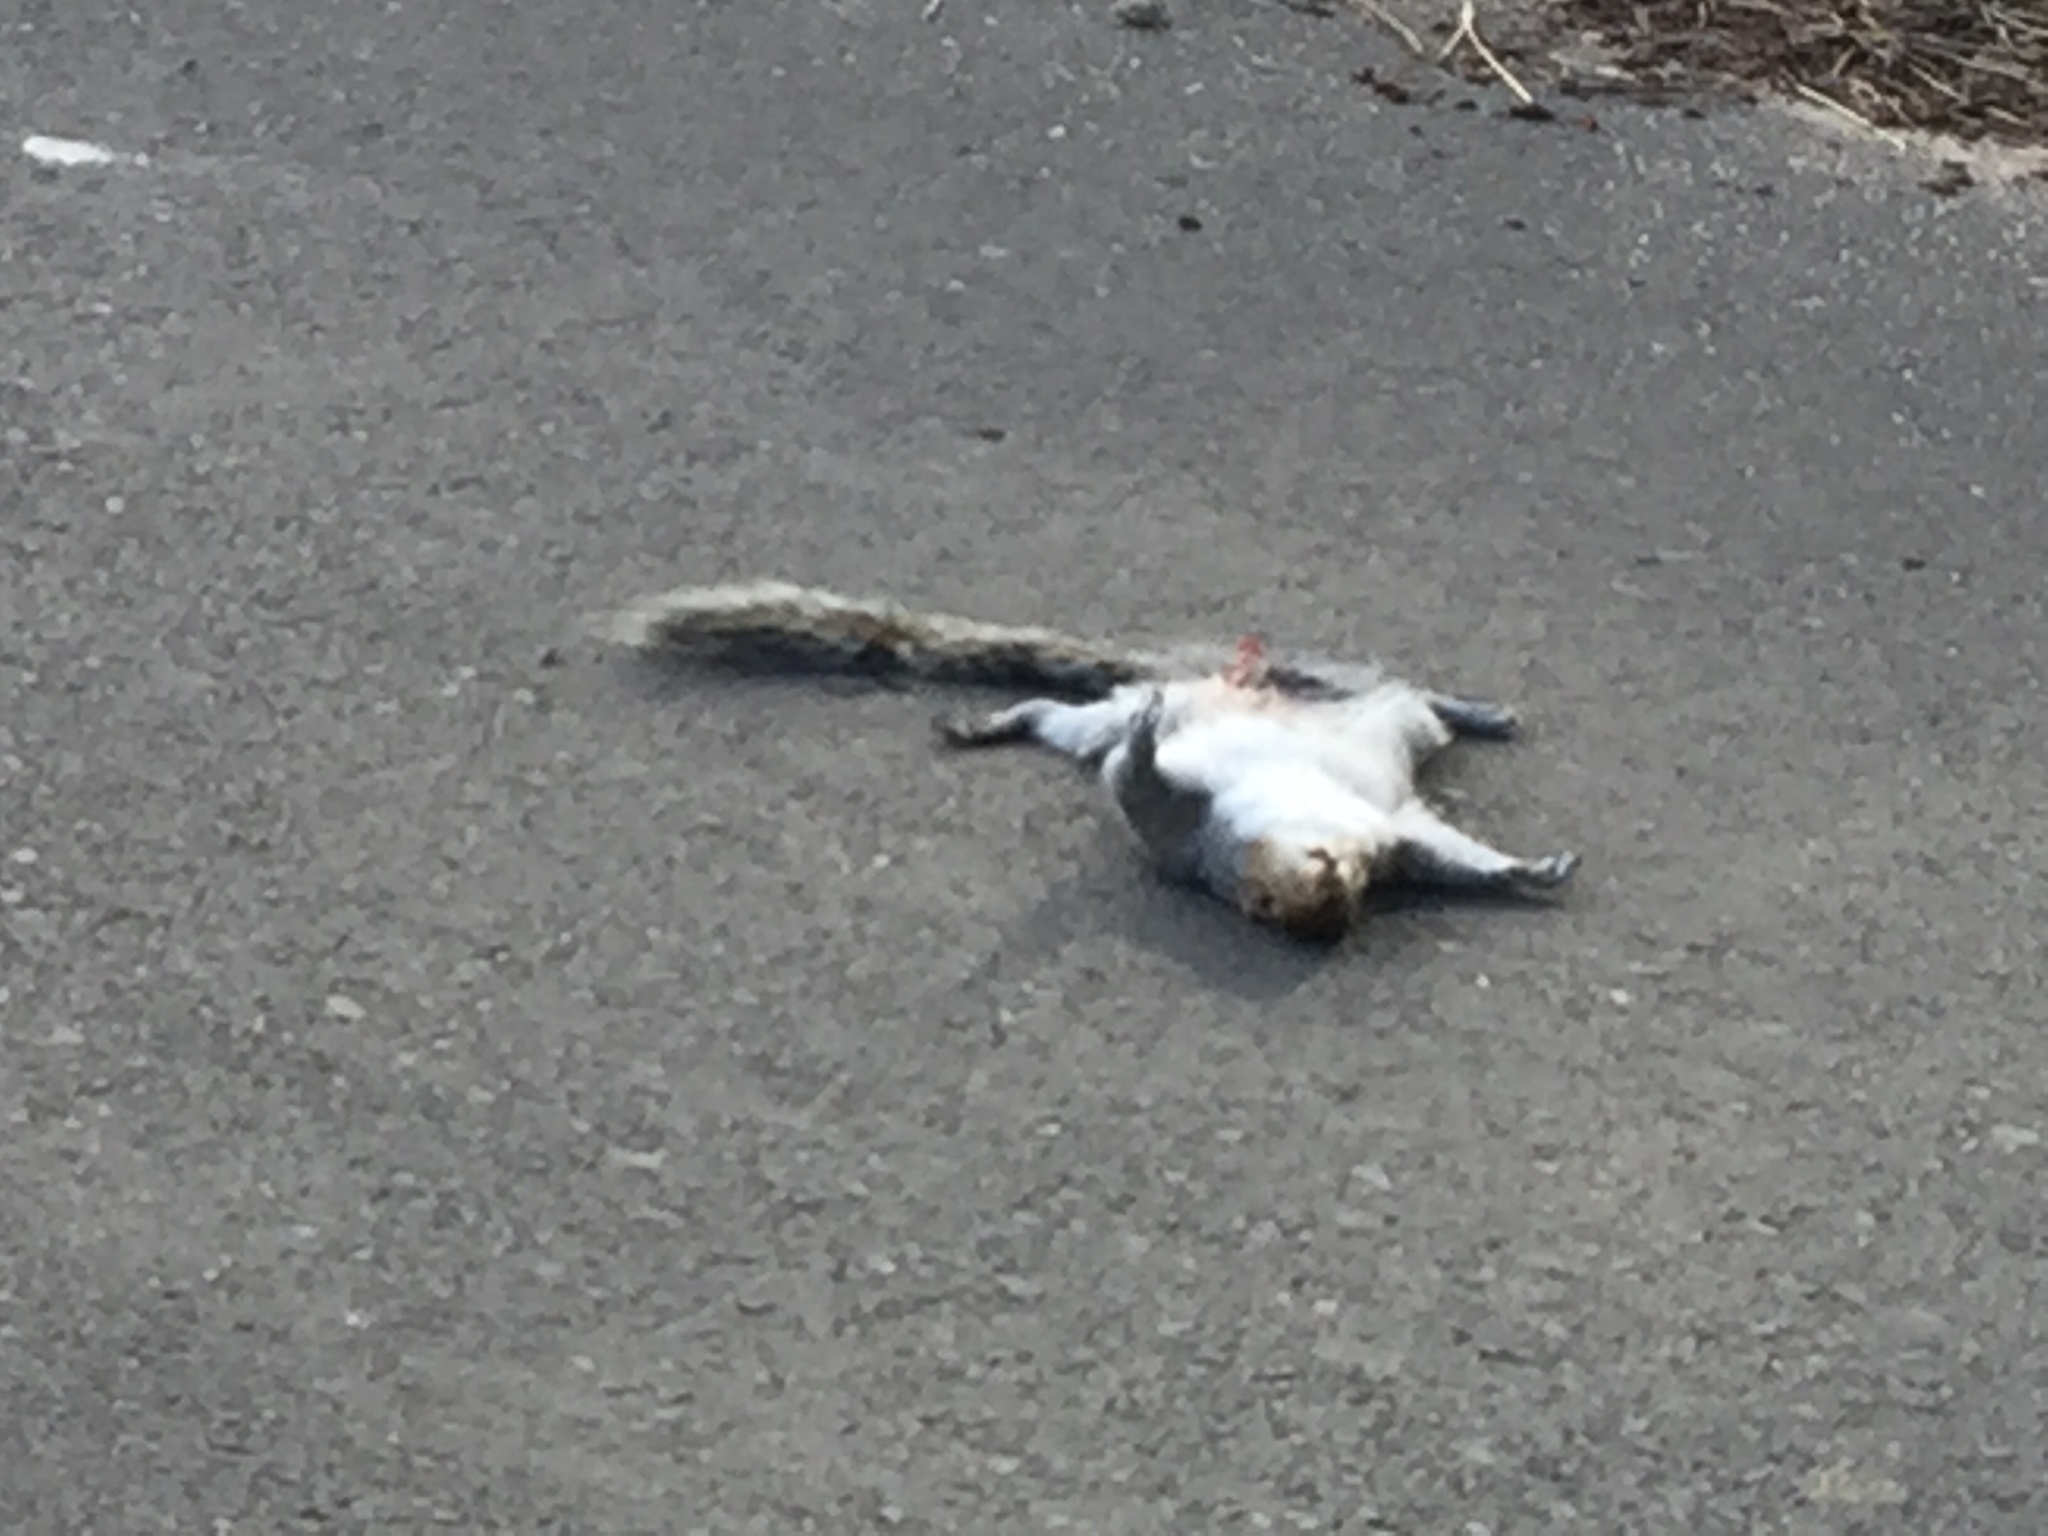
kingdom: Animalia
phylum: Chordata
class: Mammalia
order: Rodentia
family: Sciuridae
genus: Sciurus
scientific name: Sciurus carolinensis
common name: Eastern gray squirrel
